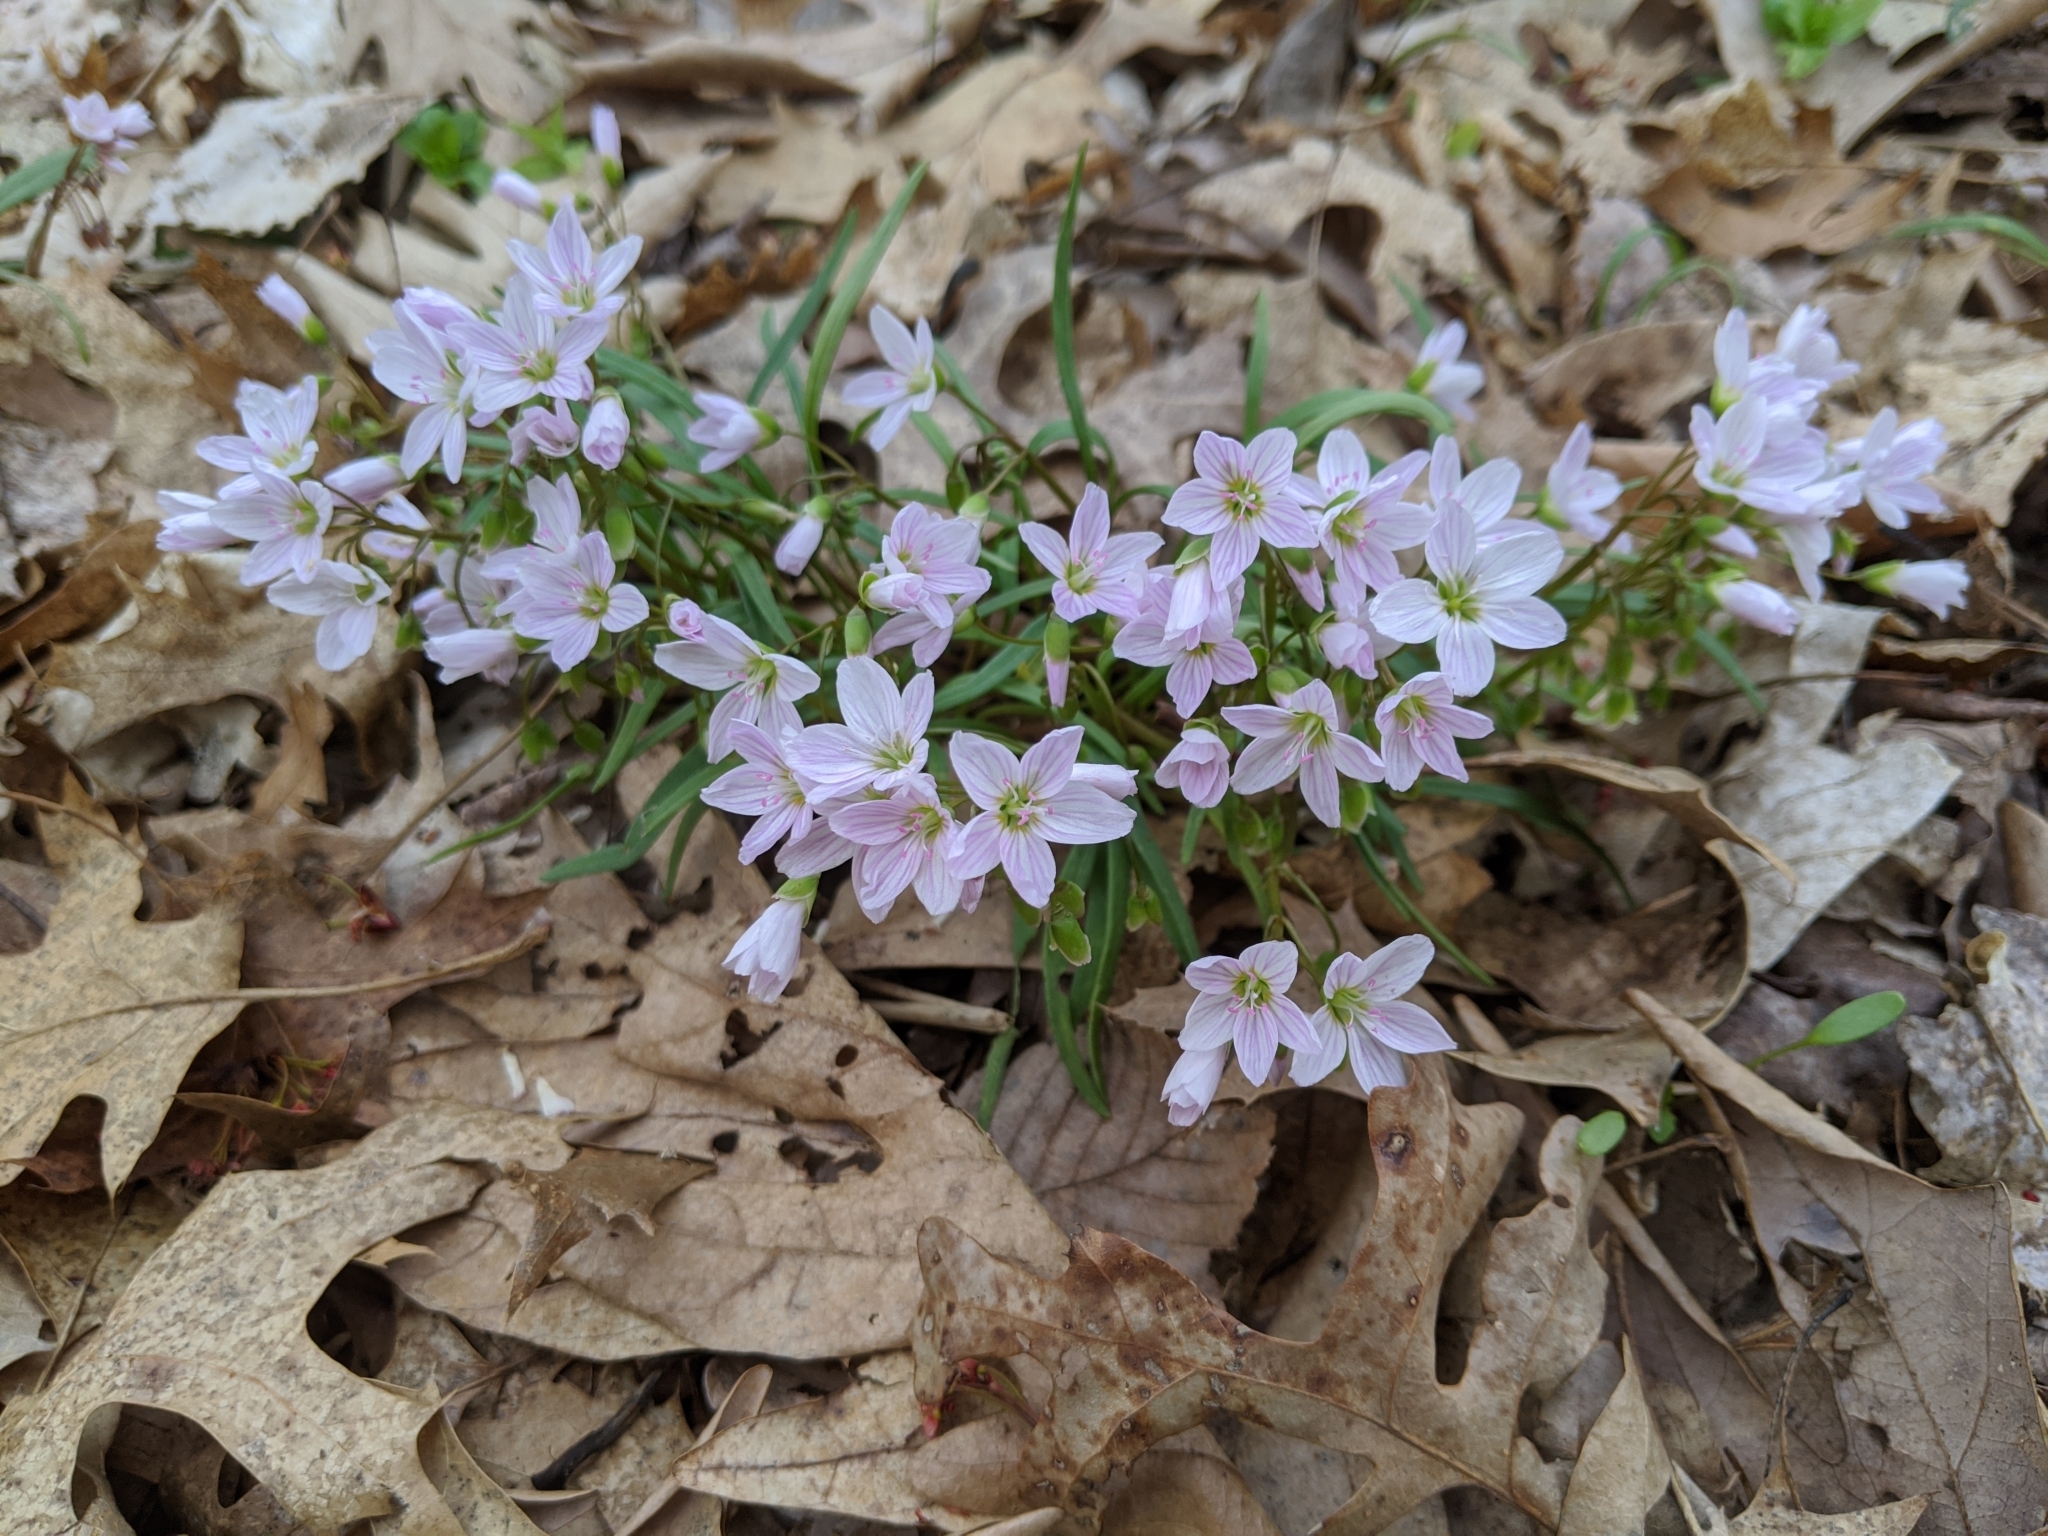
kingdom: Plantae
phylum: Tracheophyta
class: Magnoliopsida
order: Caryophyllales
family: Montiaceae
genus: Claytonia
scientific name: Claytonia virginica
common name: Virginia springbeauty
